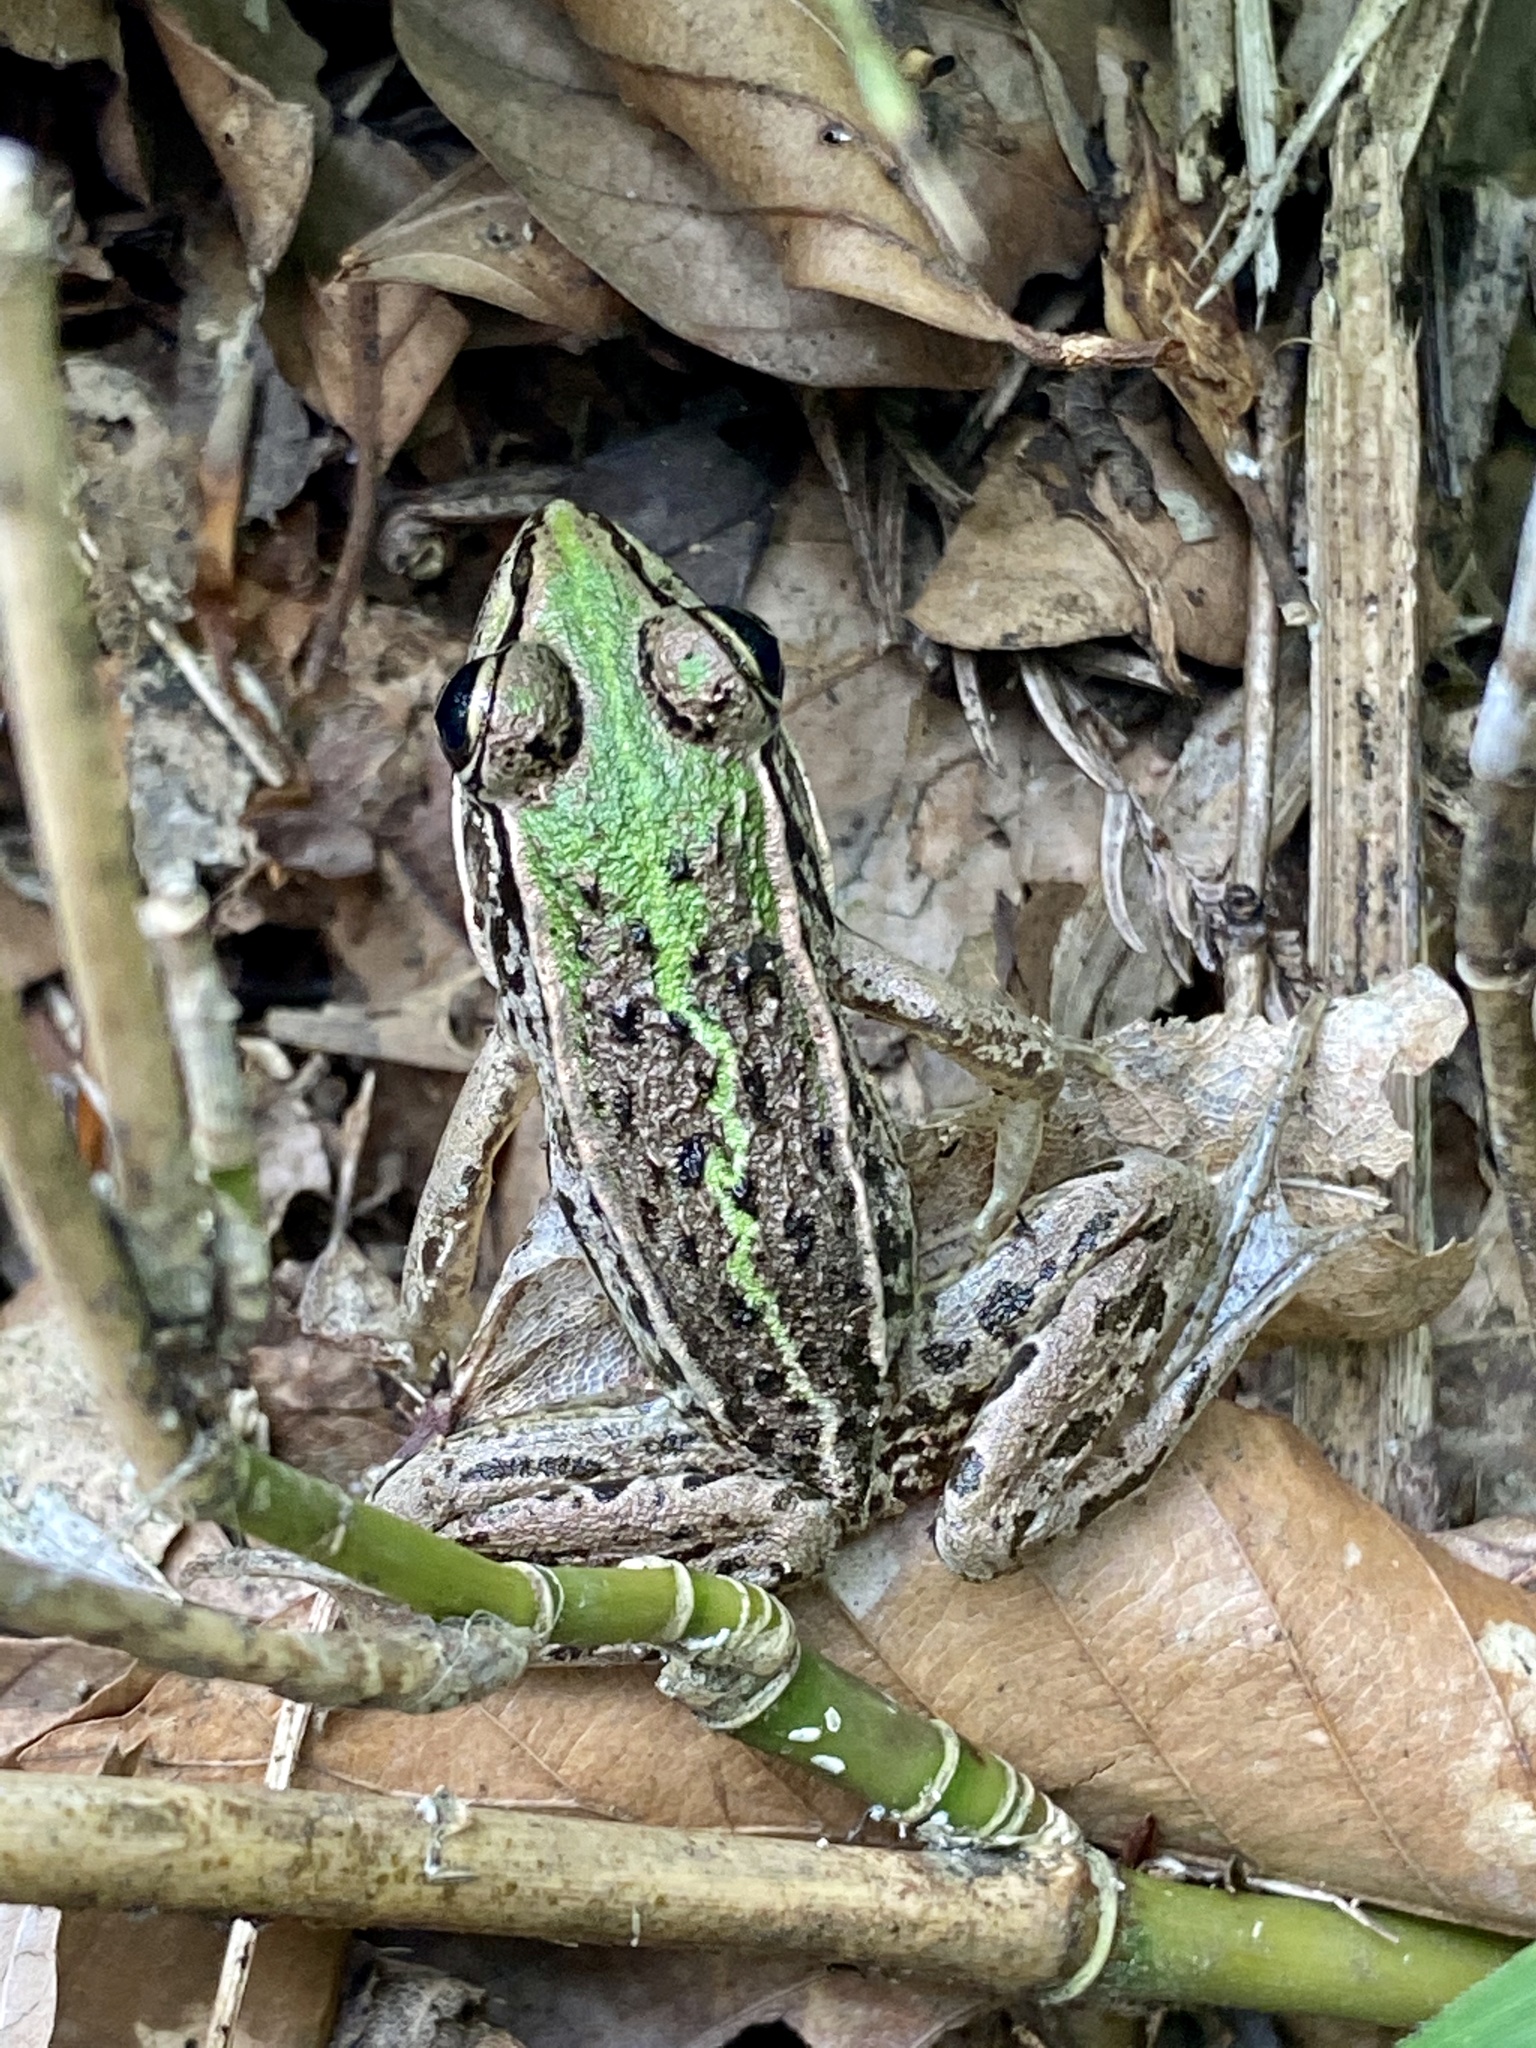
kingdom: Animalia
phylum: Chordata
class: Amphibia
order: Anura
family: Ranidae
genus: Pelophylax
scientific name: Pelophylax nigromaculatus
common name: Black-spotted pond frog
